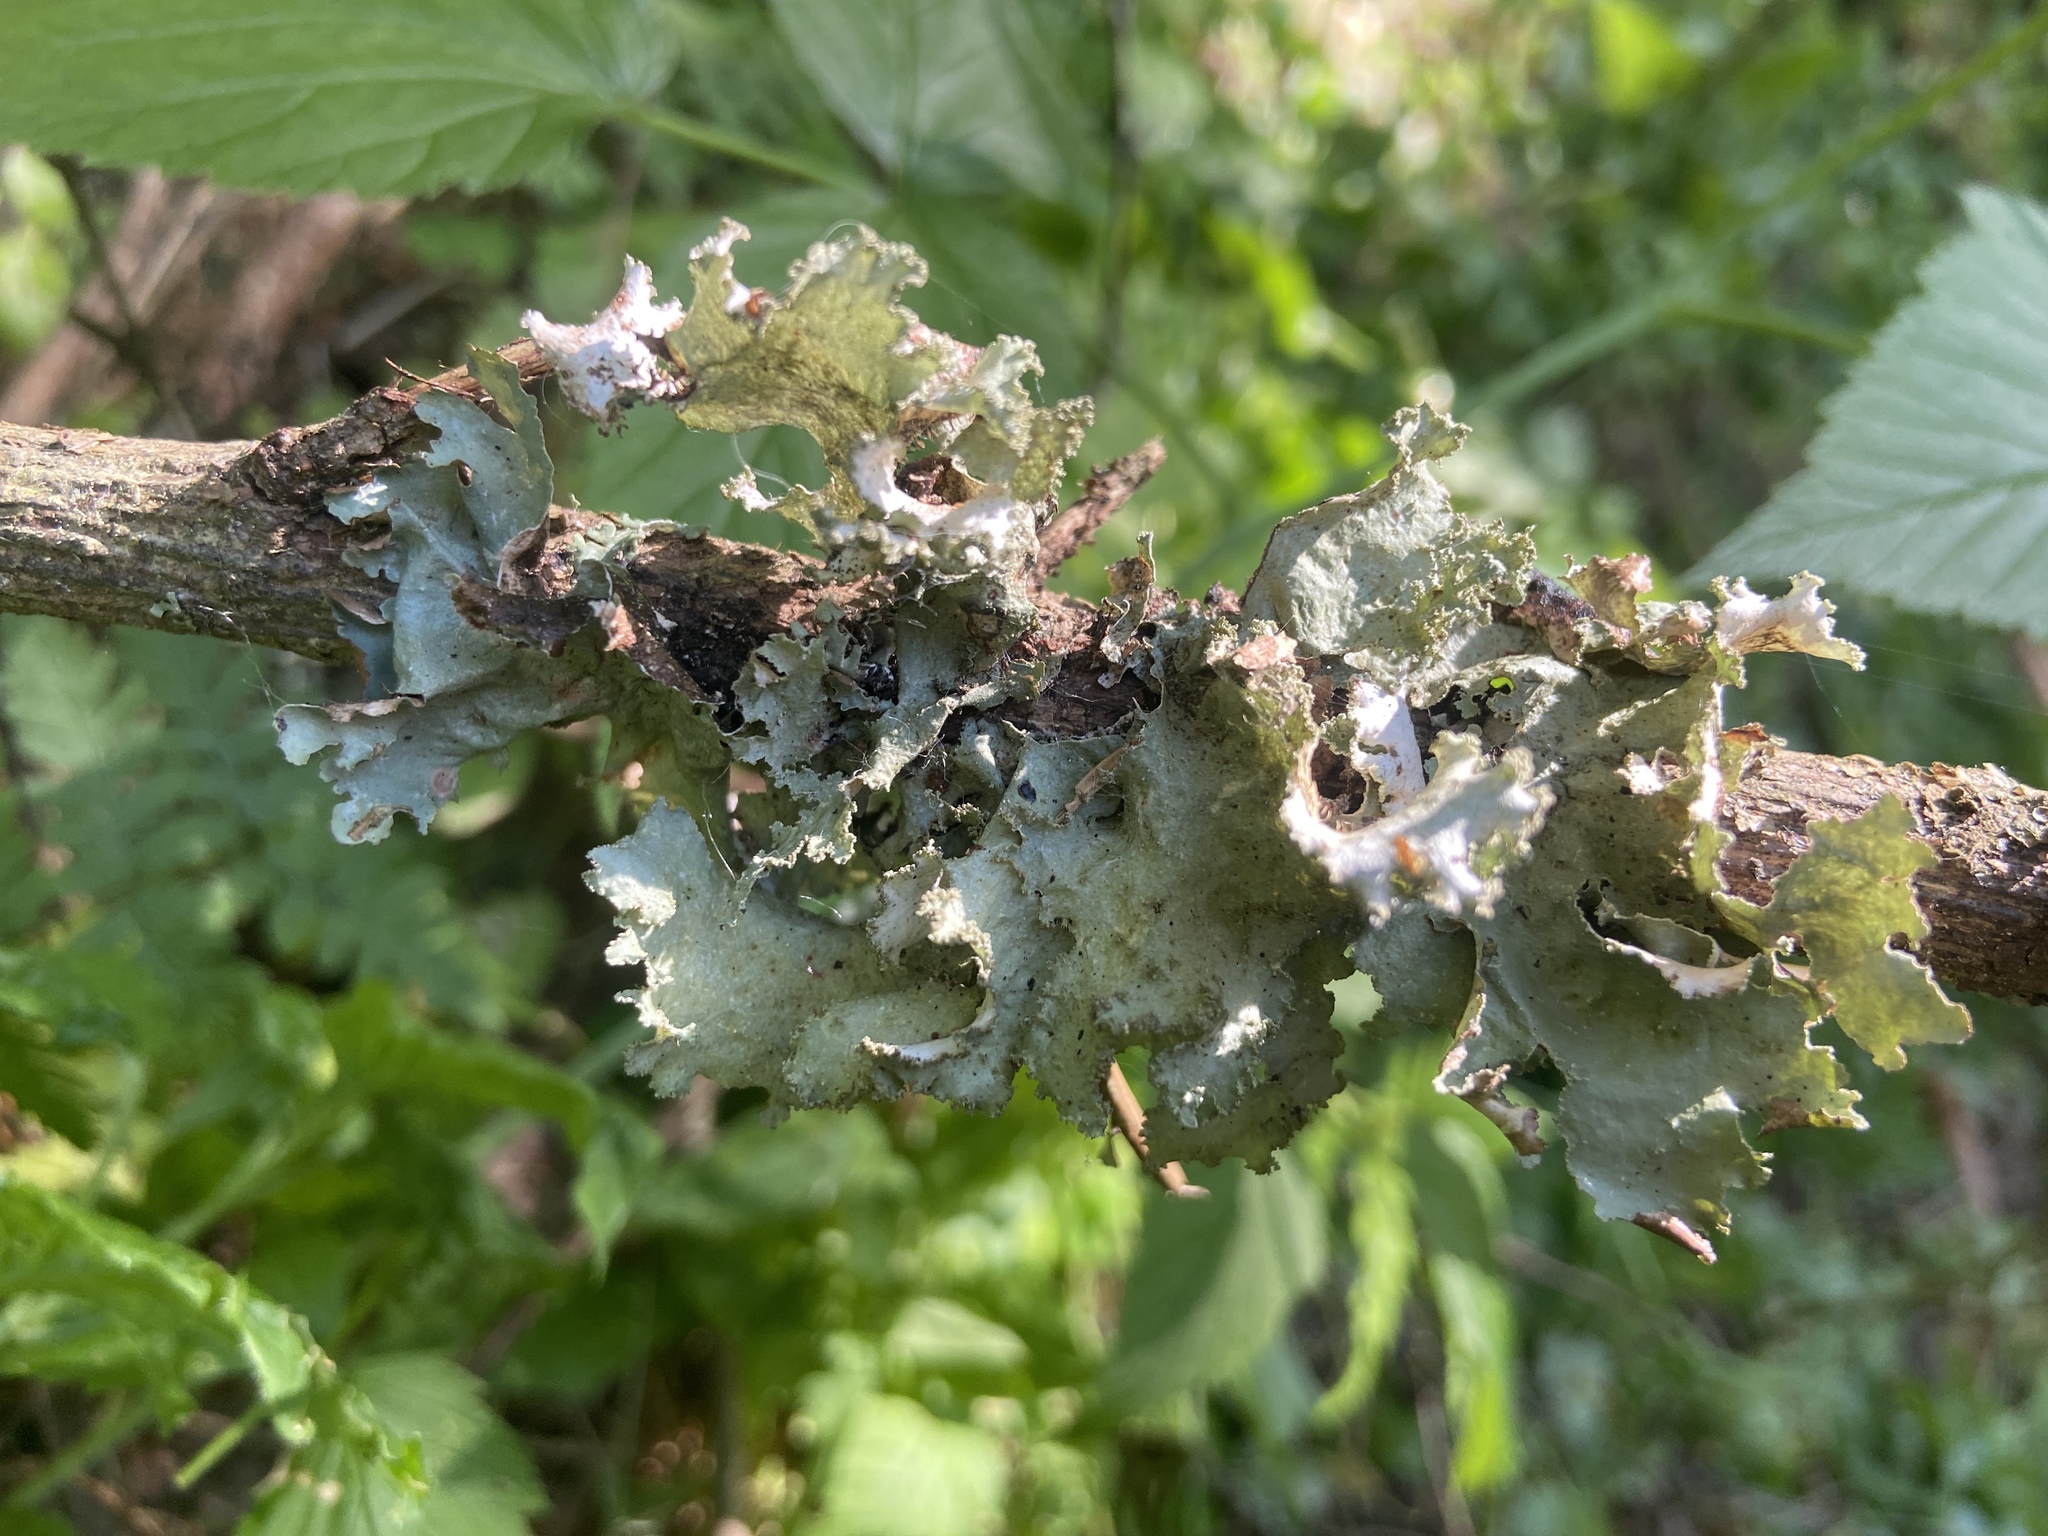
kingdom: Fungi
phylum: Ascomycota
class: Lecanoromycetes
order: Lecanorales
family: Parmeliaceae
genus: Platismatia
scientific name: Platismatia glauca
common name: Varied rag lichen
